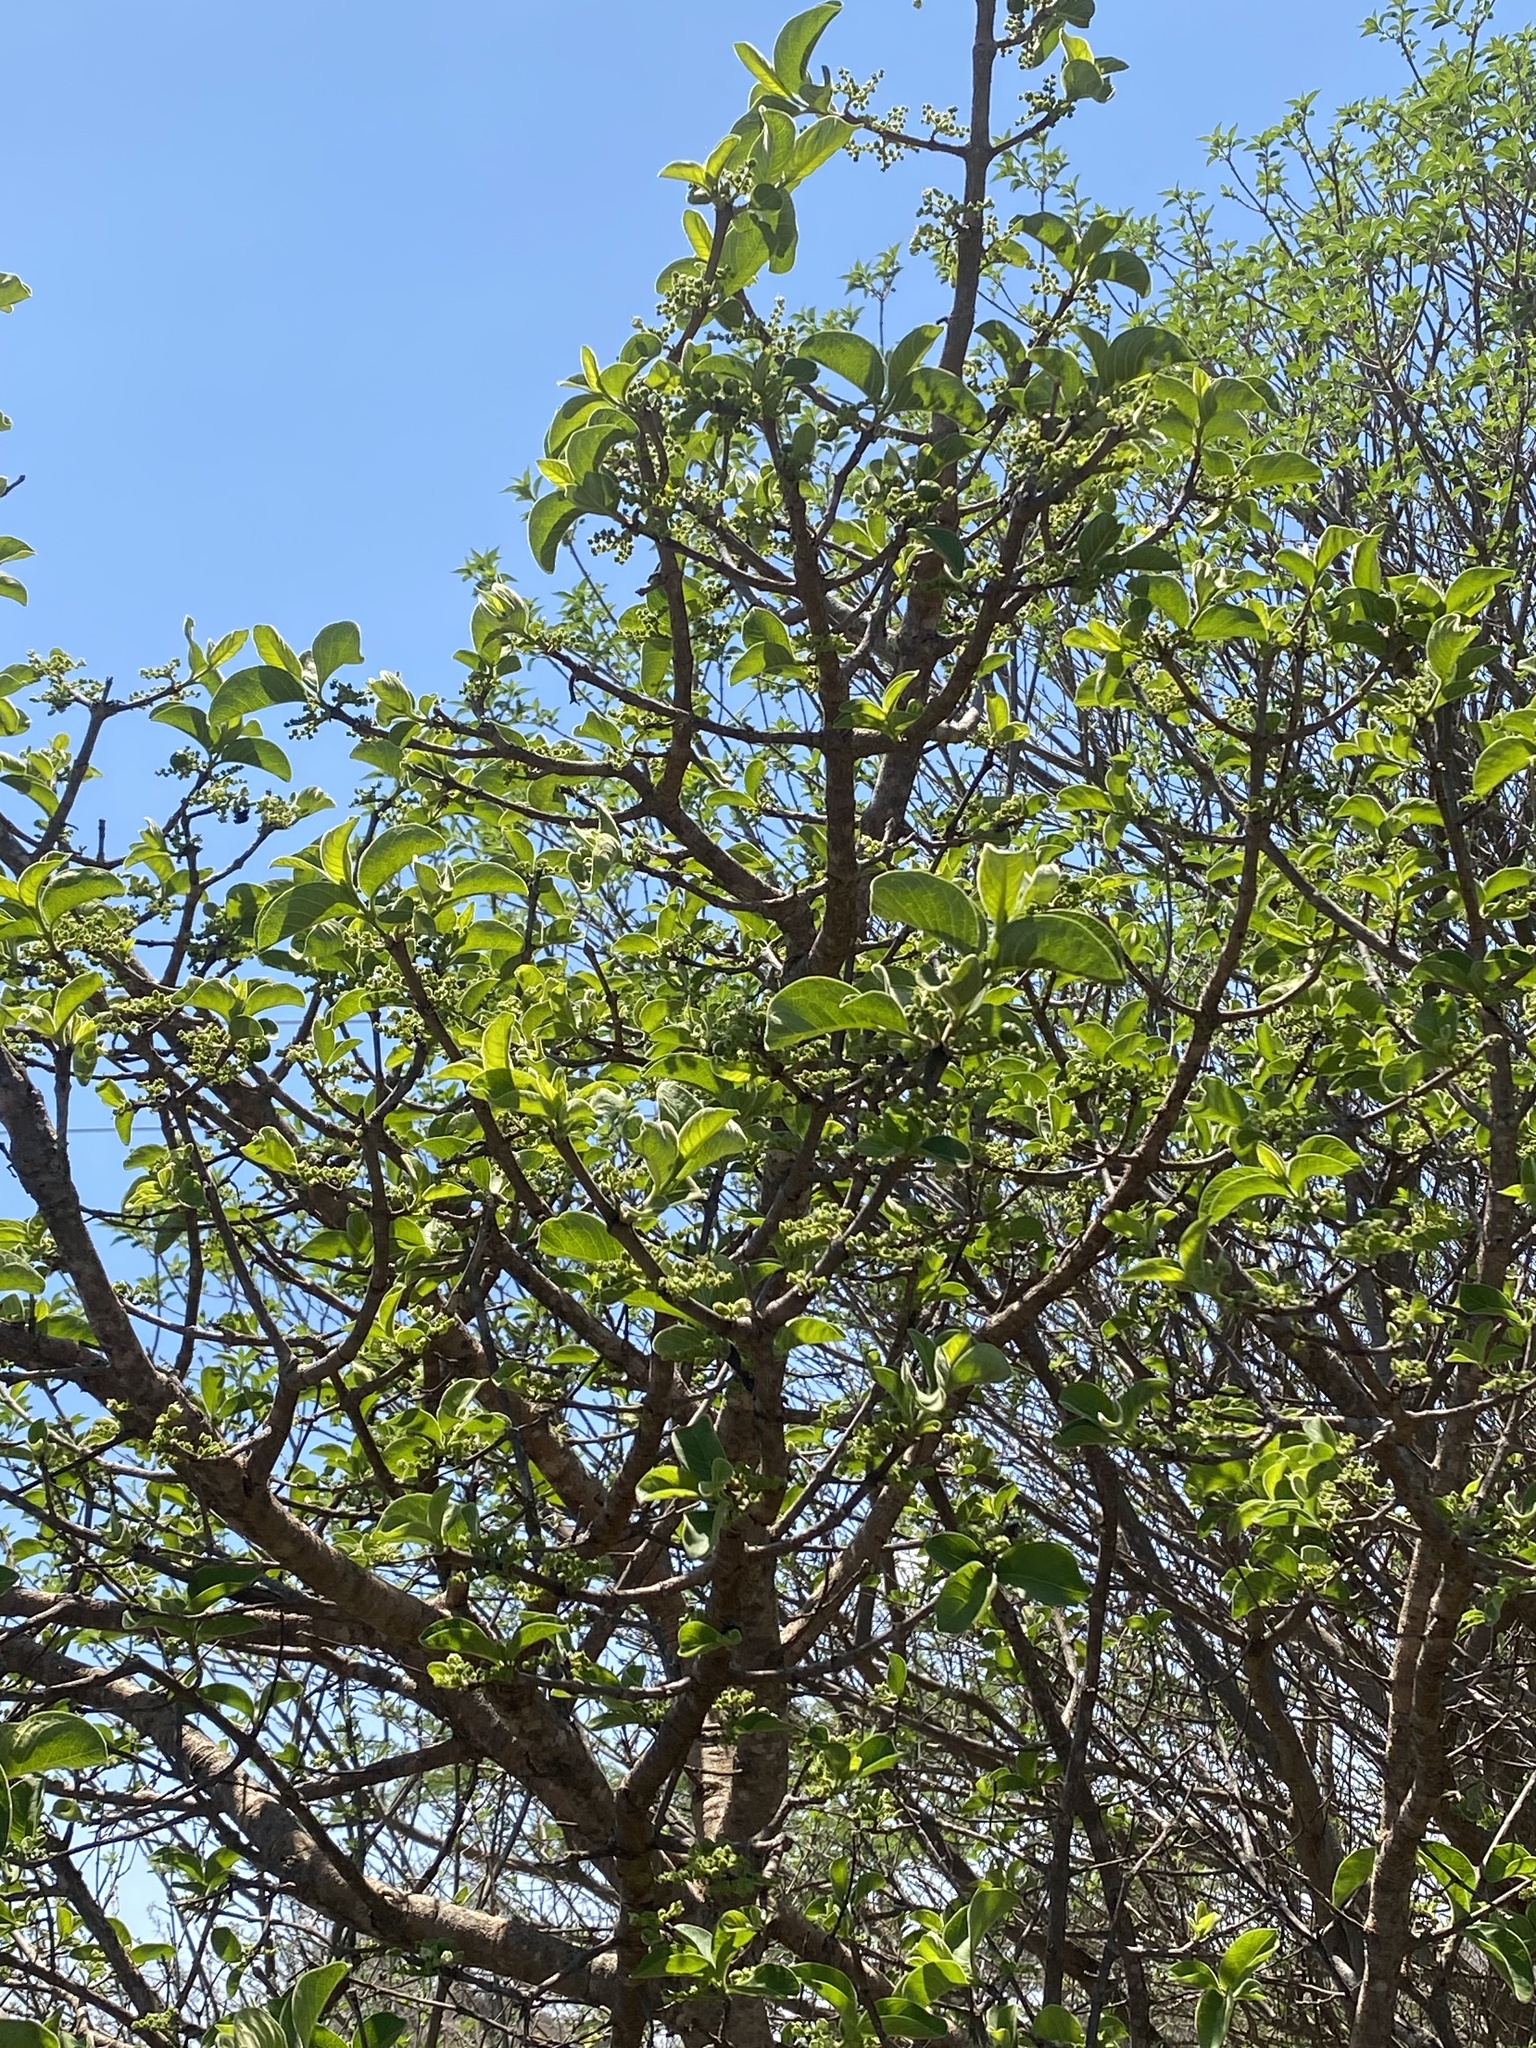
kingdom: Plantae
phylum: Tracheophyta
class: Magnoliopsida
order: Gentianales
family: Rubiaceae
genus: Vangueria
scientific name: Vangueria infausta
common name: Medlar
